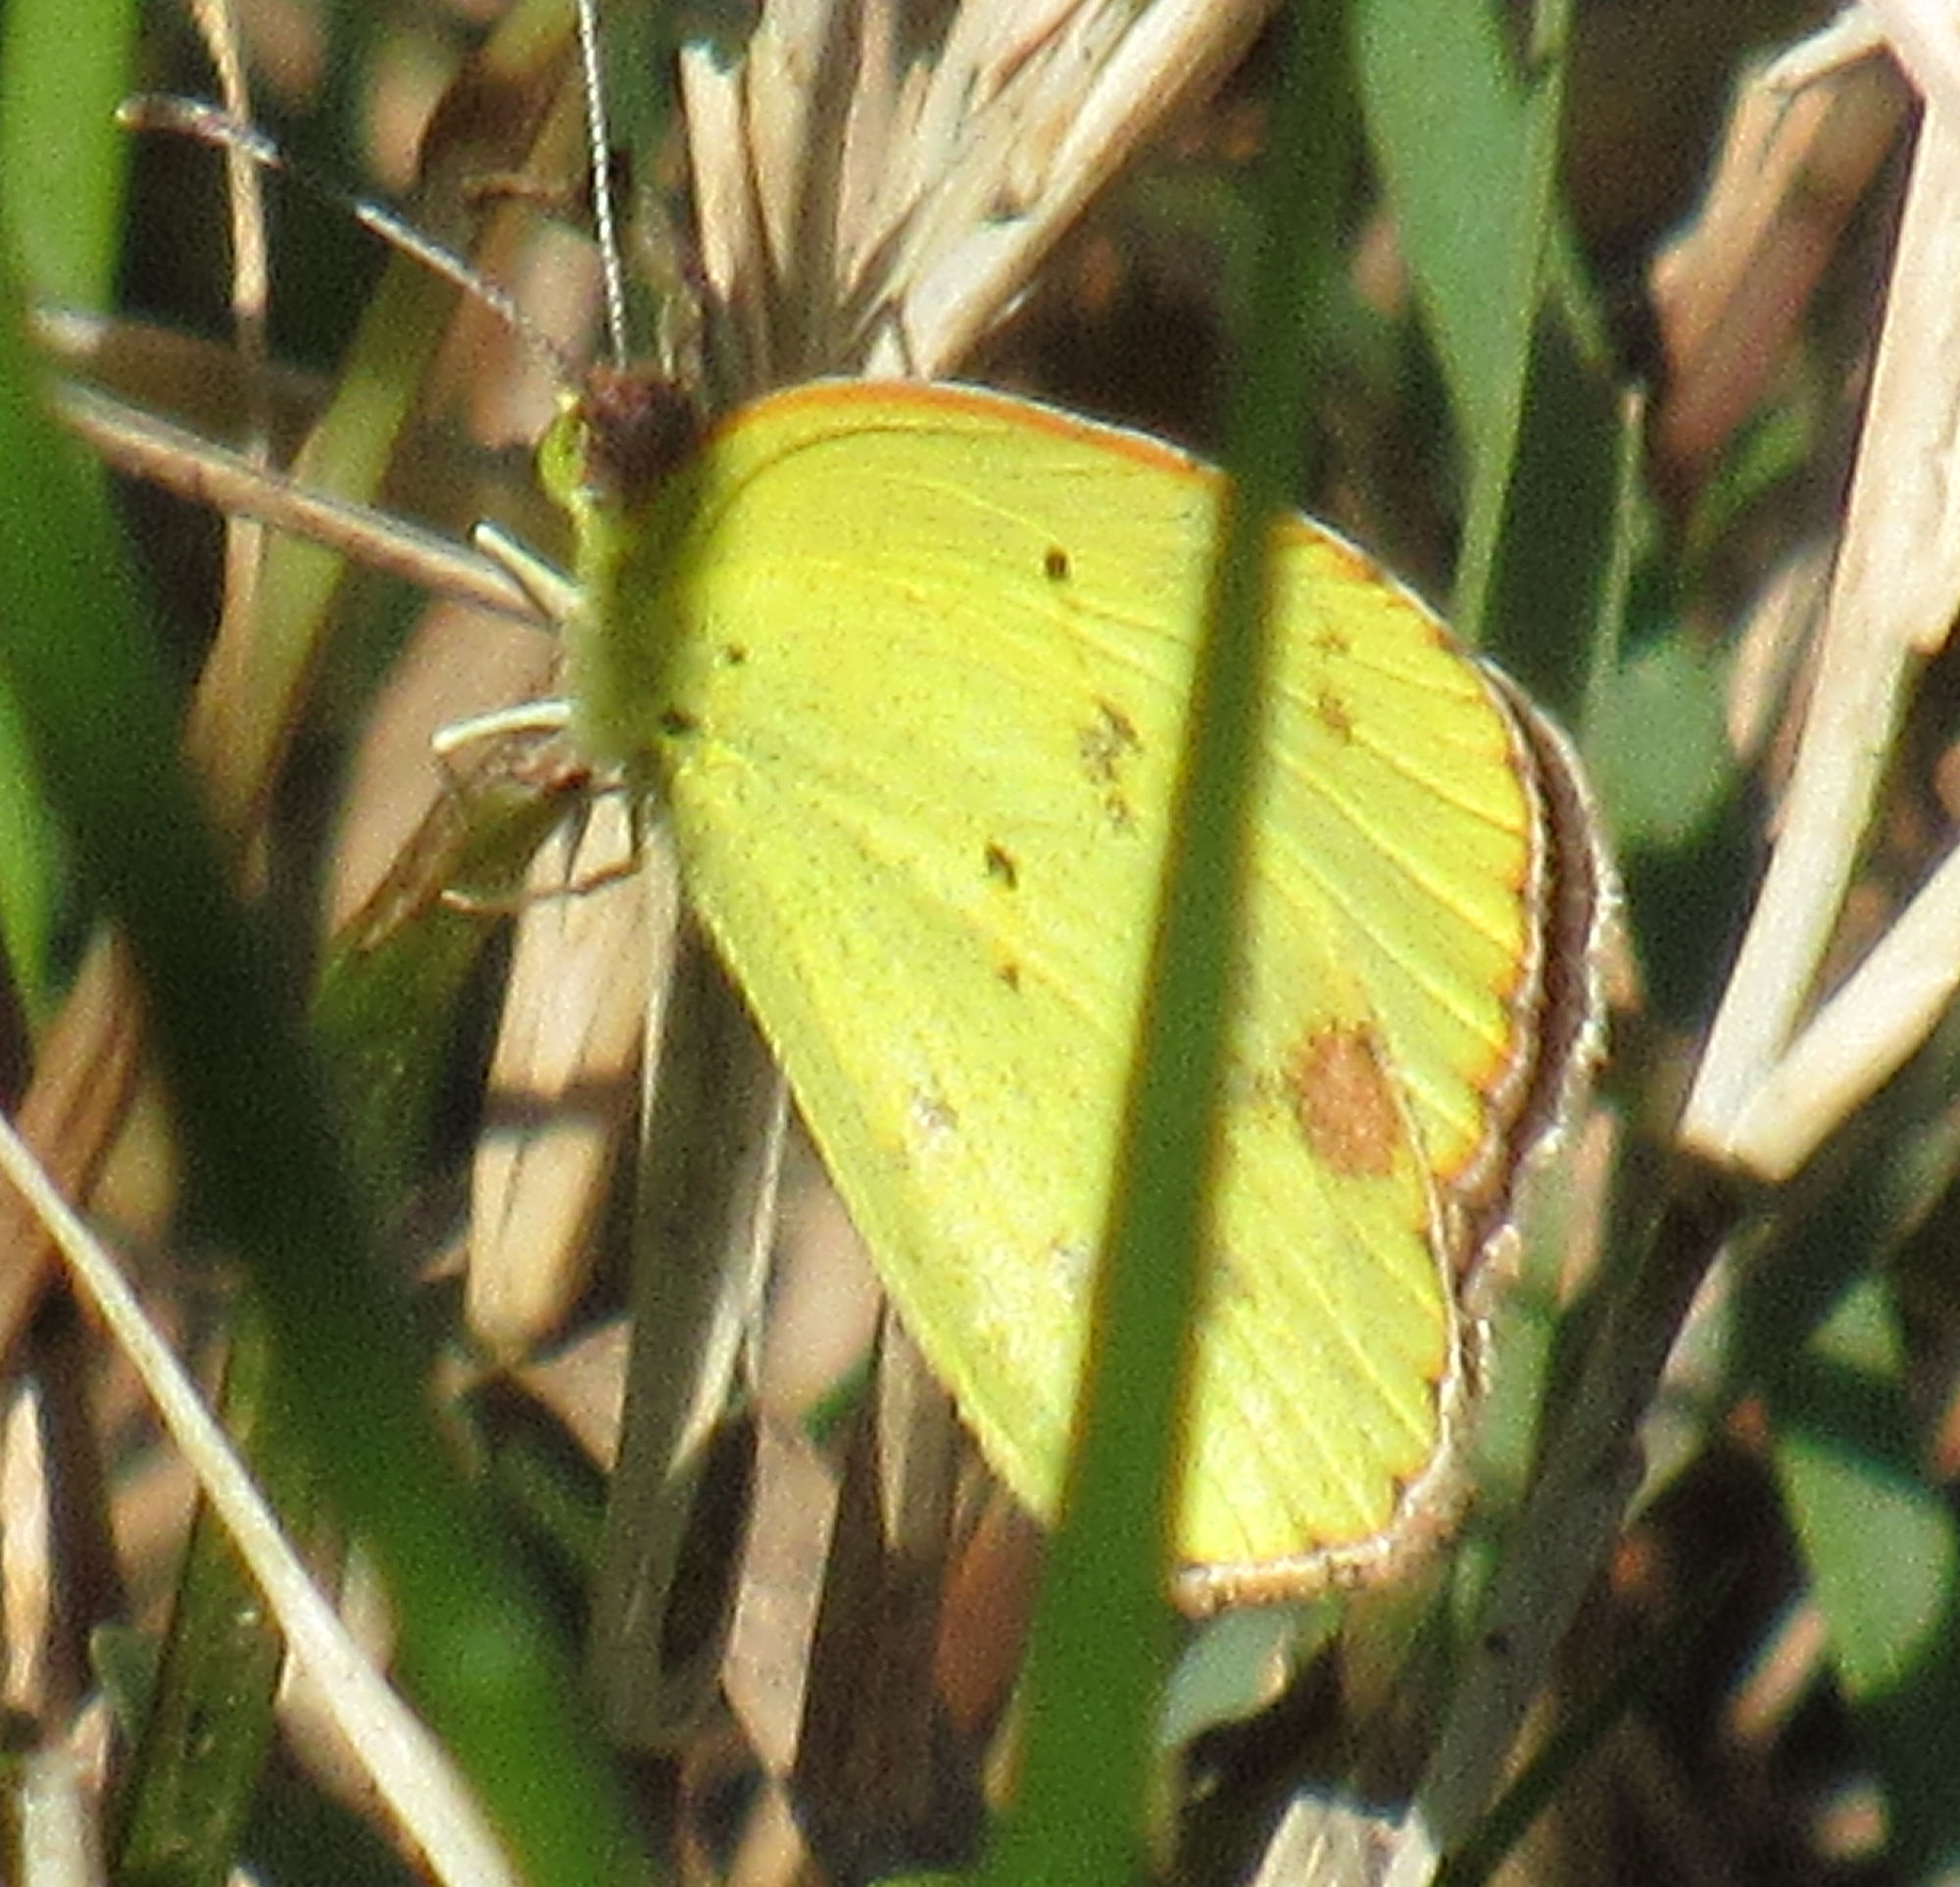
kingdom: Animalia
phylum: Arthropoda
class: Insecta
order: Lepidoptera
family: Pieridae
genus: Pyrisitia
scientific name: Pyrisitia lisa
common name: Little yellow
